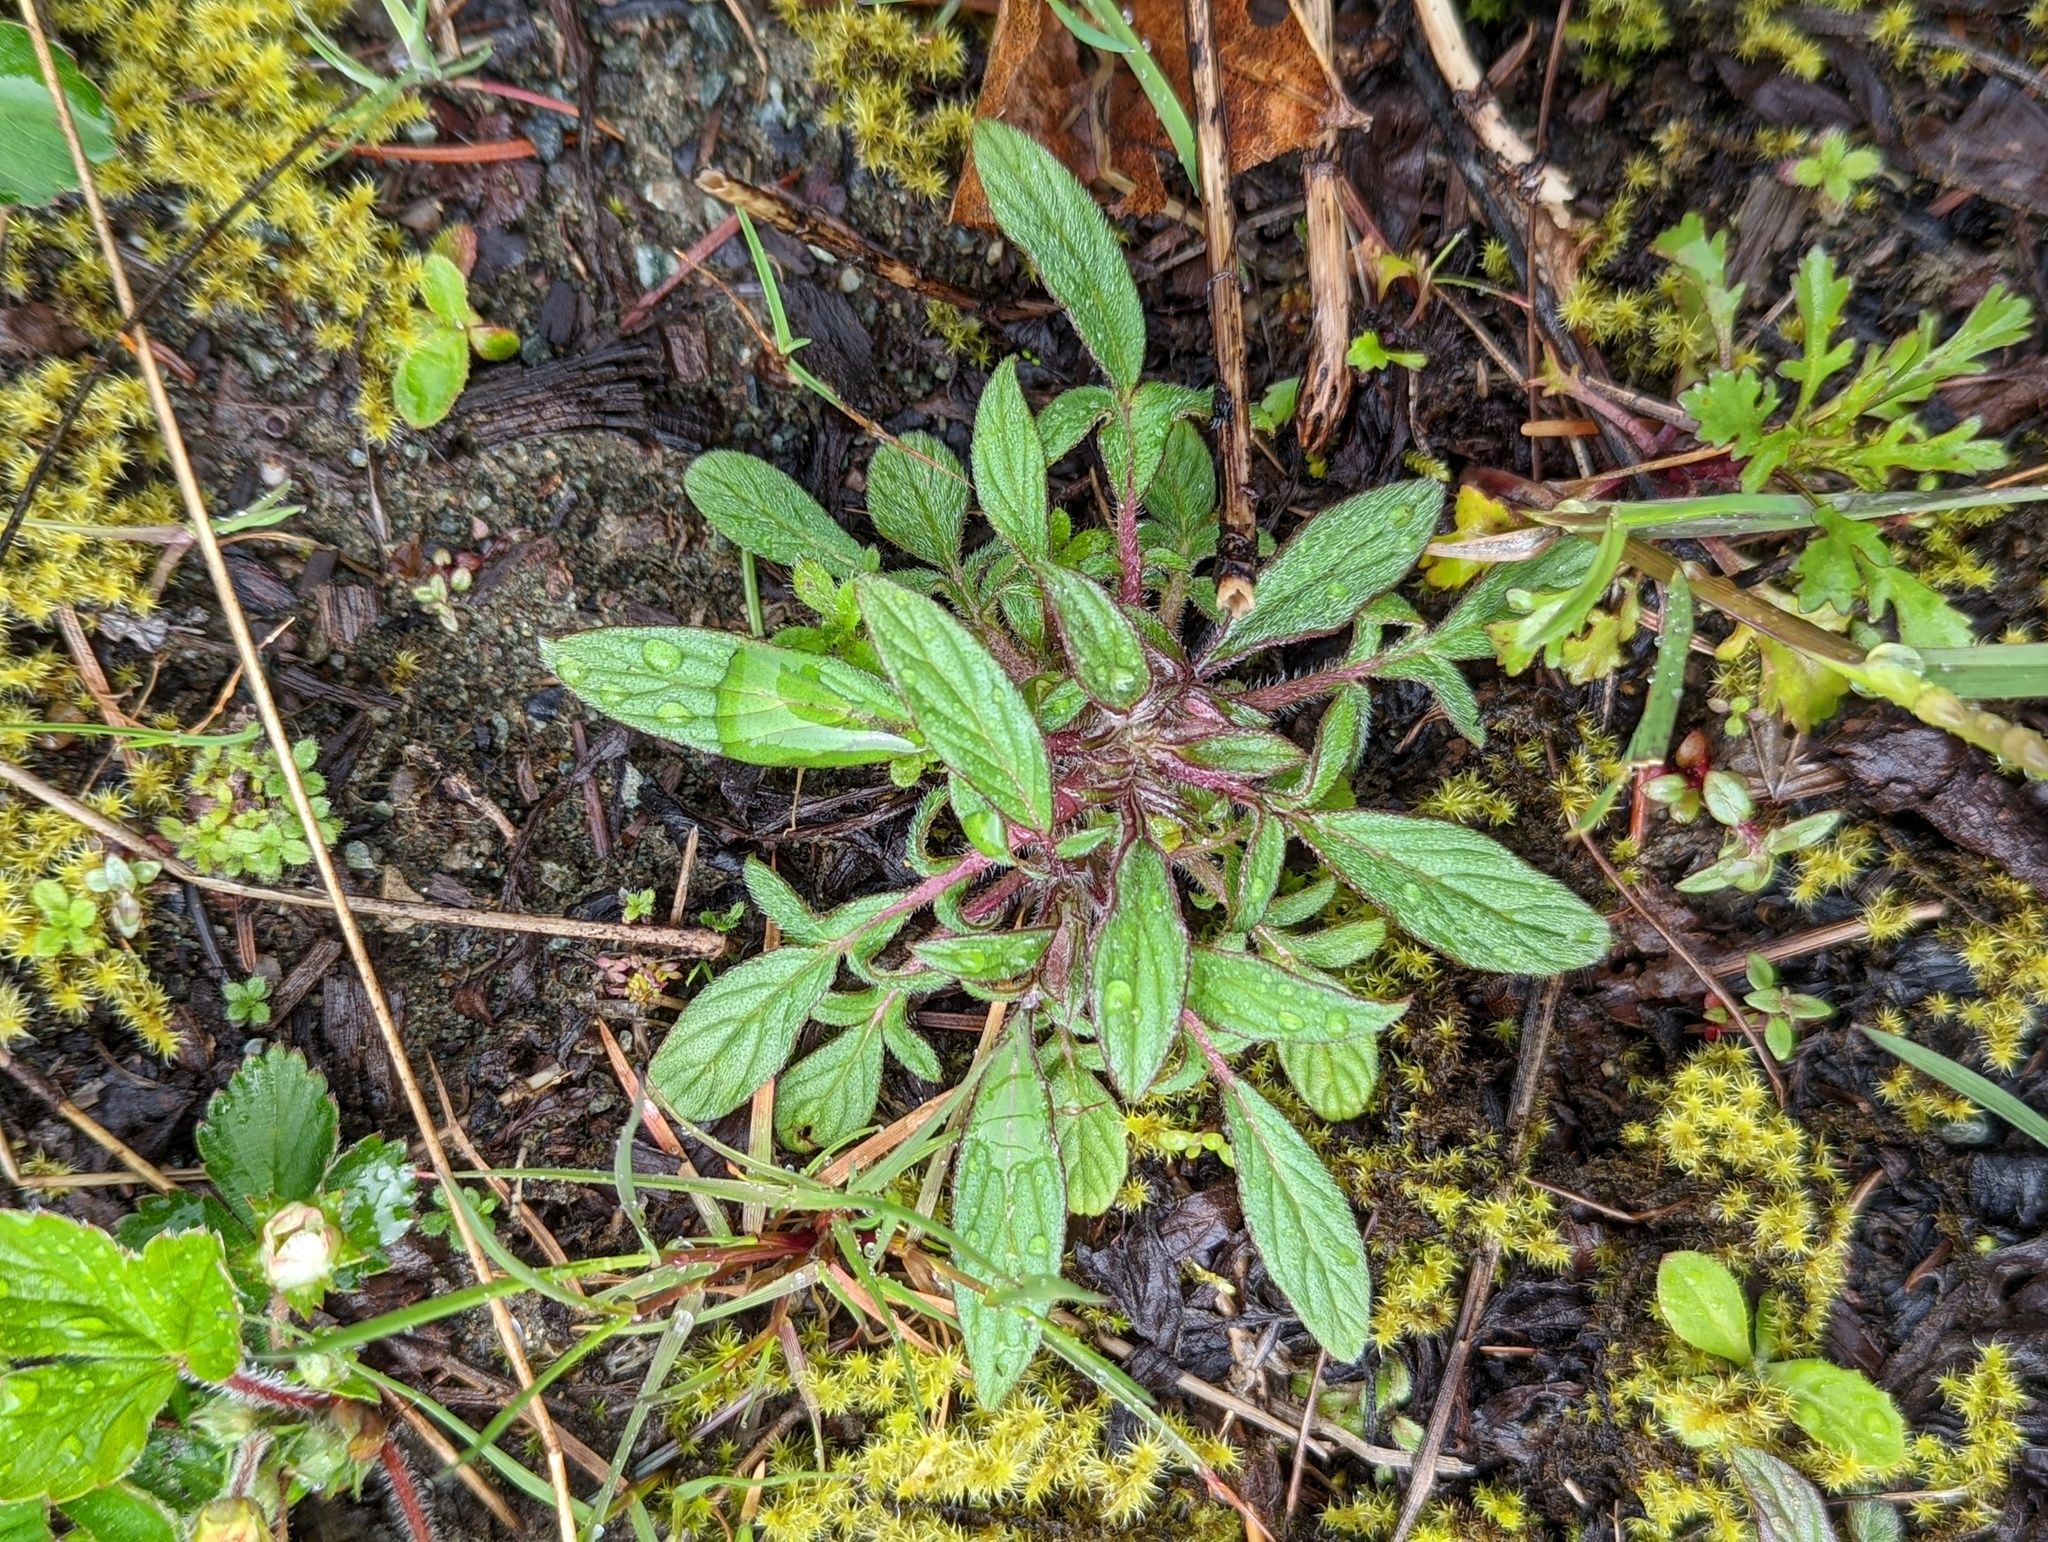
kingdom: Plantae
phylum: Tracheophyta
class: Magnoliopsida
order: Boraginales
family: Hydrophyllaceae
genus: Phacelia
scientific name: Phacelia leptosepala
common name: Narrow-sepaled phacelia
